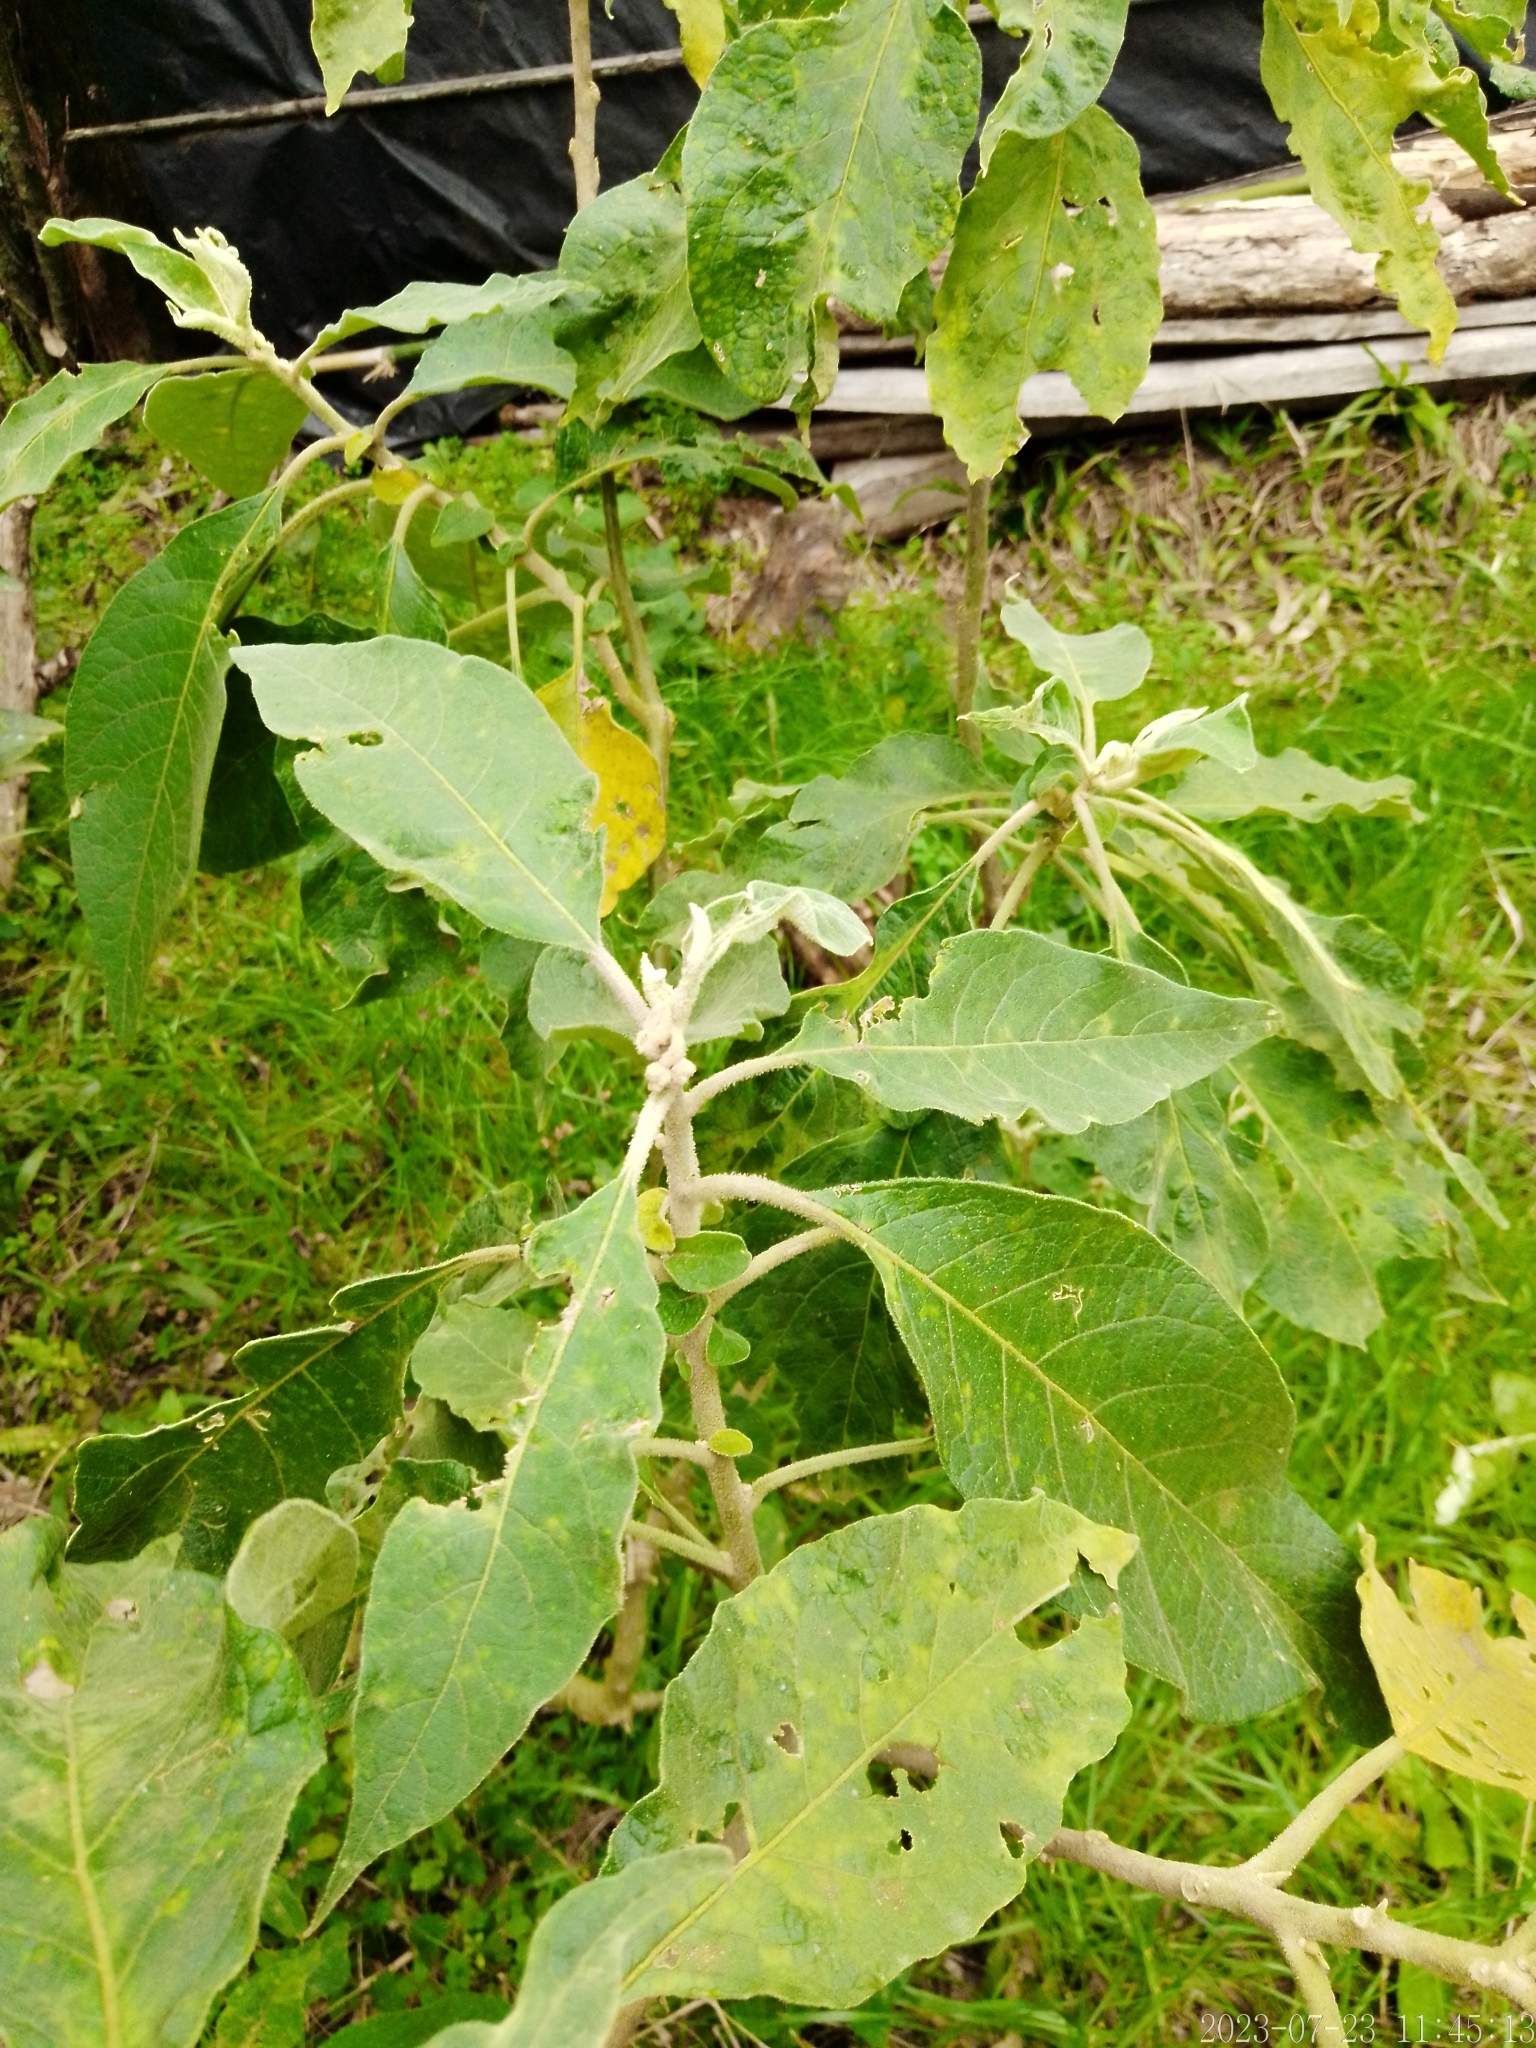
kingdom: Plantae
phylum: Tracheophyta
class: Magnoliopsida
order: Solanales
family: Solanaceae
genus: Solanum
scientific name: Solanum mauritianum
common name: Earleaf nightshade
